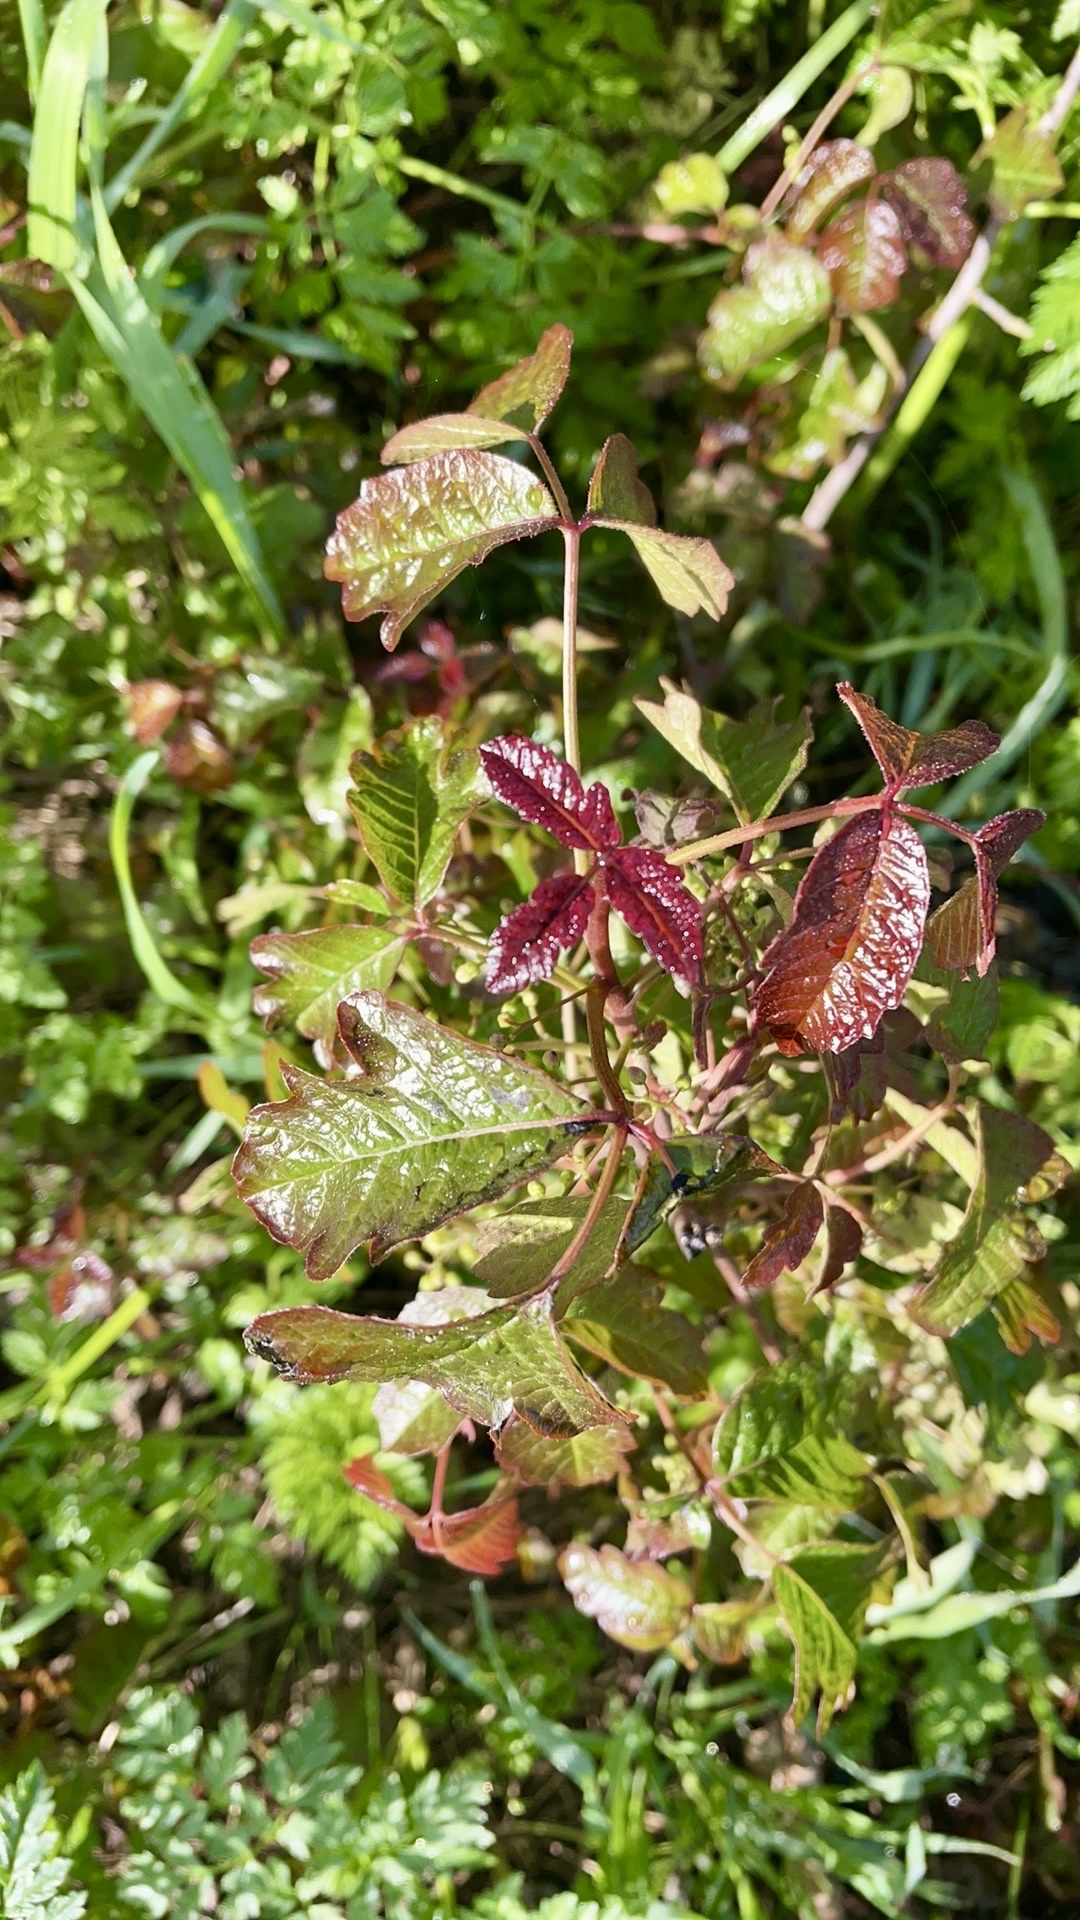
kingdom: Plantae
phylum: Tracheophyta
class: Magnoliopsida
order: Sapindales
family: Anacardiaceae
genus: Toxicodendron
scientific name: Toxicodendron diversilobum
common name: Pacific poison-oak
